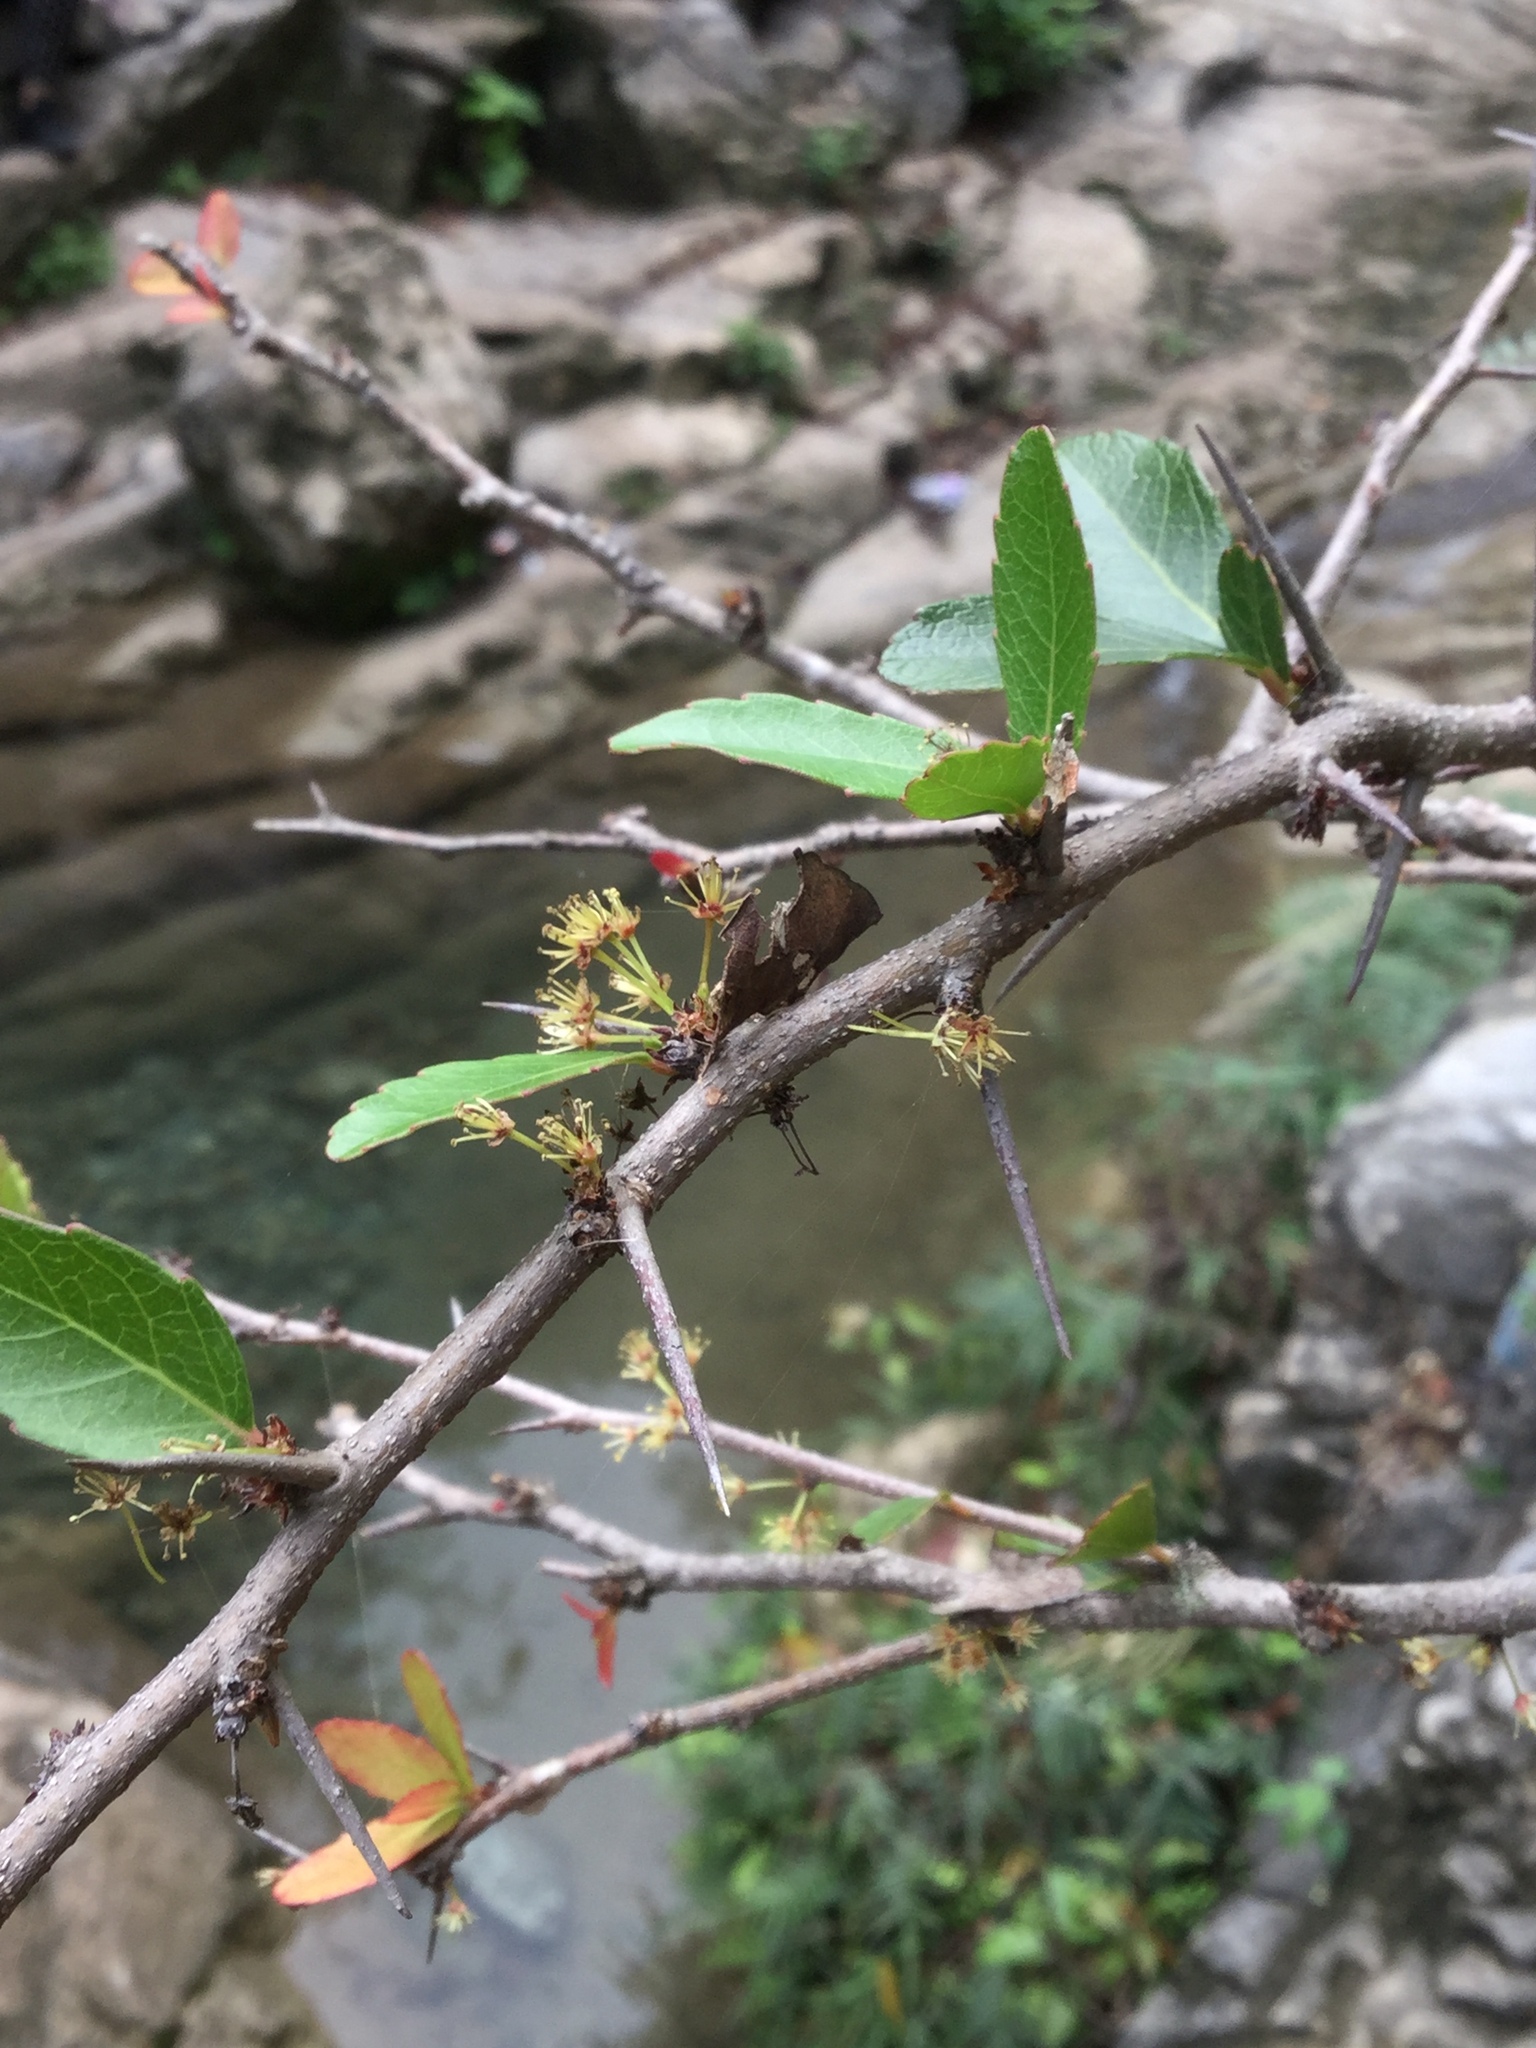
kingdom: Plantae
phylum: Tracheophyta
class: Magnoliopsida
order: Malpighiales
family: Salicaceae
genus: Xylosma
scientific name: Xylosma flexuosa
